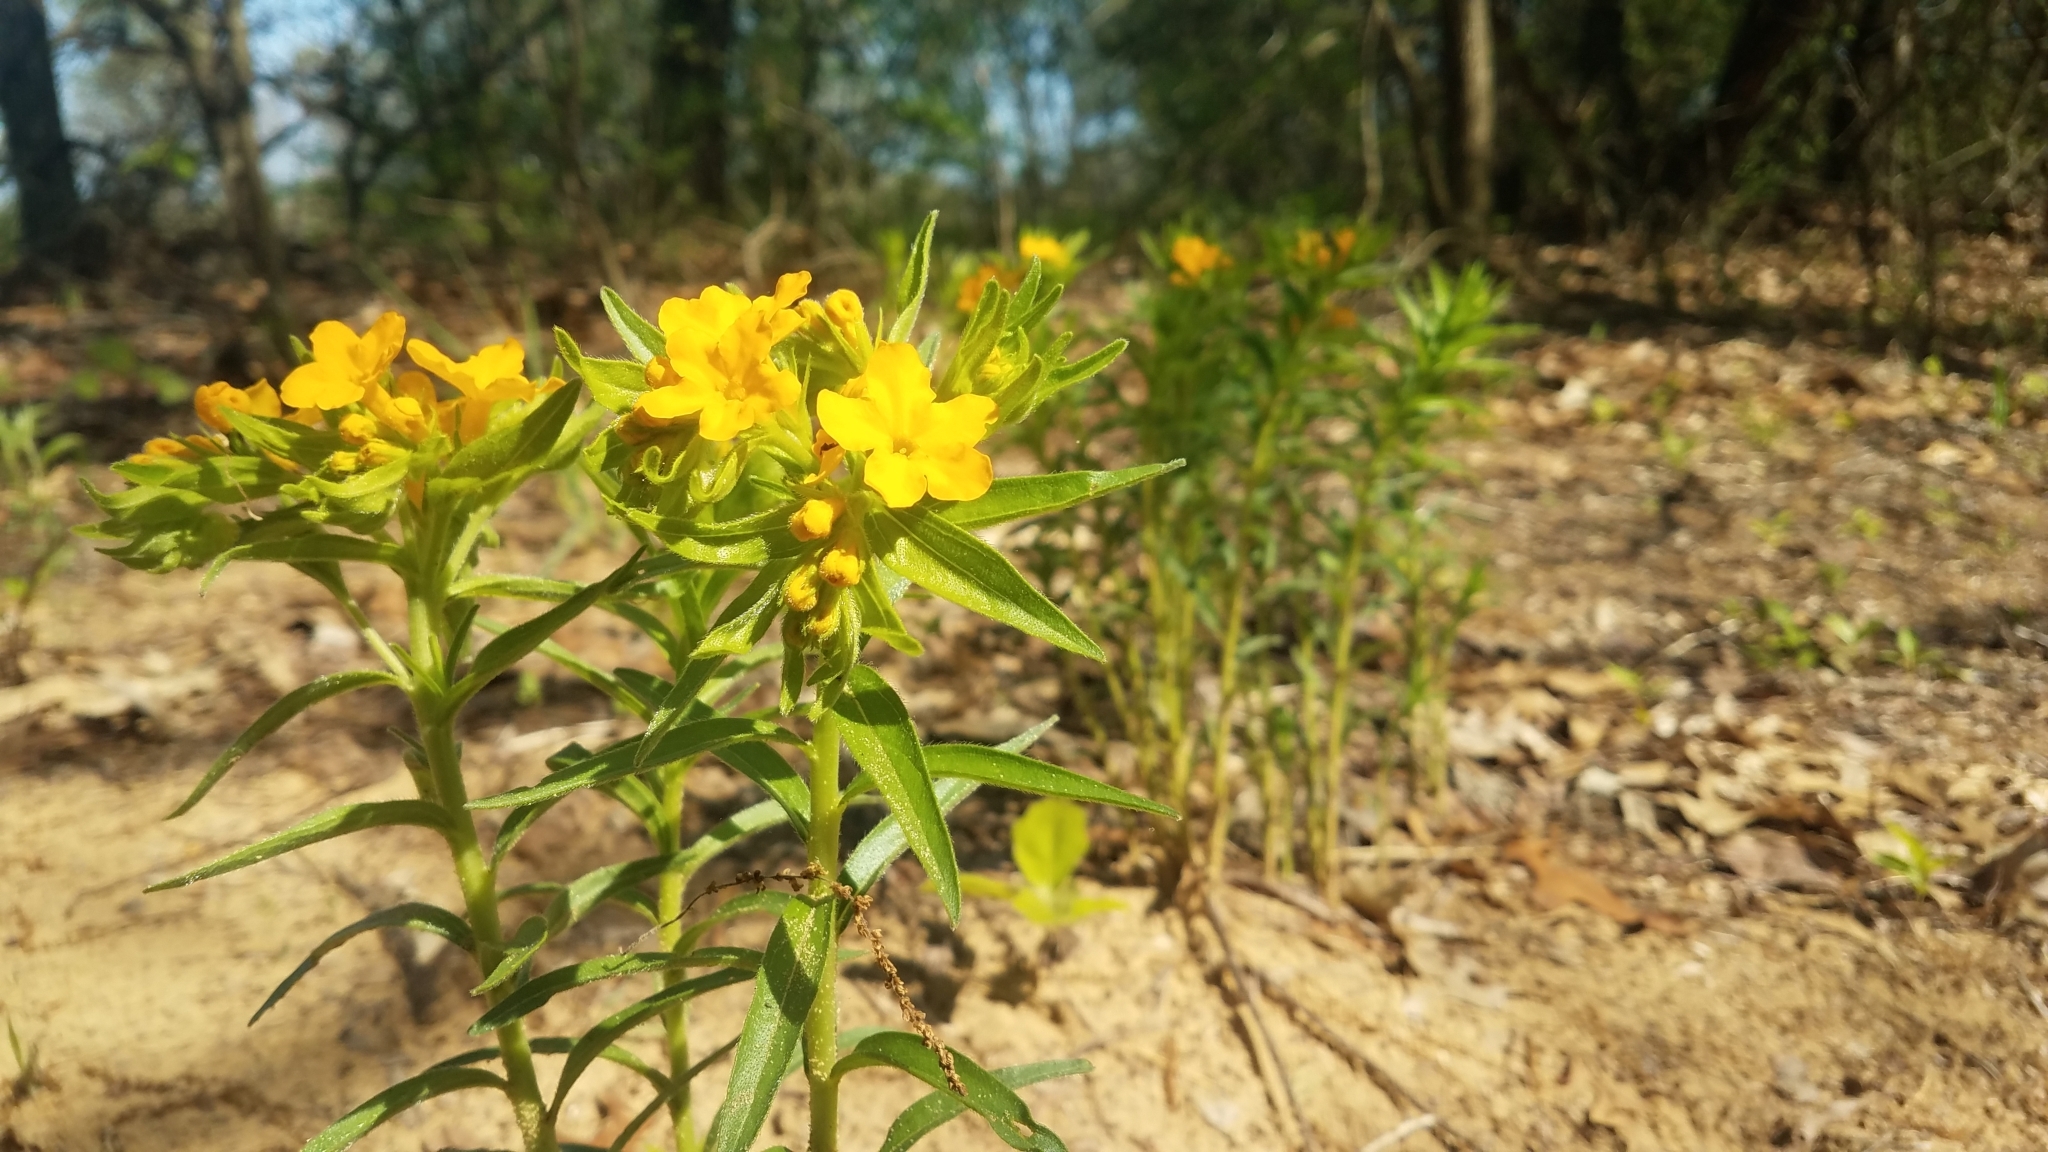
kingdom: Plantae
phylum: Tracheophyta
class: Magnoliopsida
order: Boraginales
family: Boraginaceae
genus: Lithospermum
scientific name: Lithospermum caroliniense
